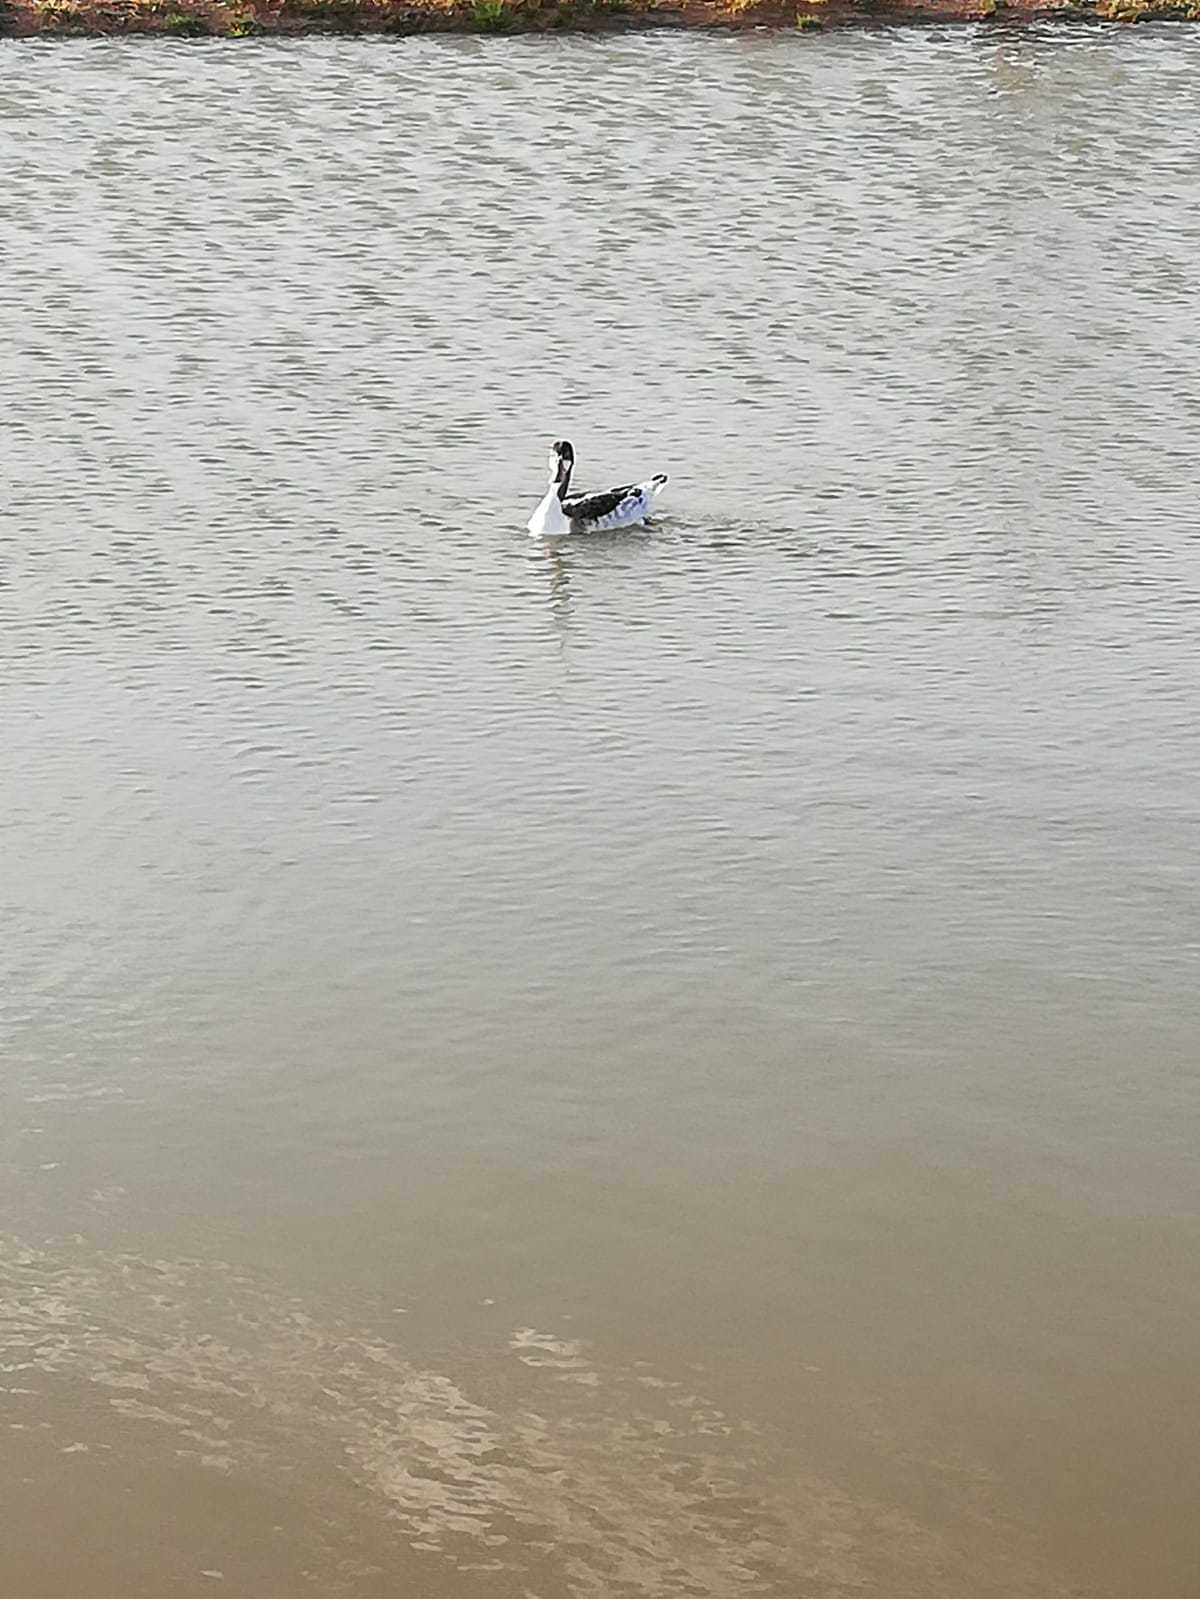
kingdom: Animalia
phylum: Chordata
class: Aves
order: Anseriformes
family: Anatidae
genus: Tadorna
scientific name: Tadorna tadorna
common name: Common shelduck
